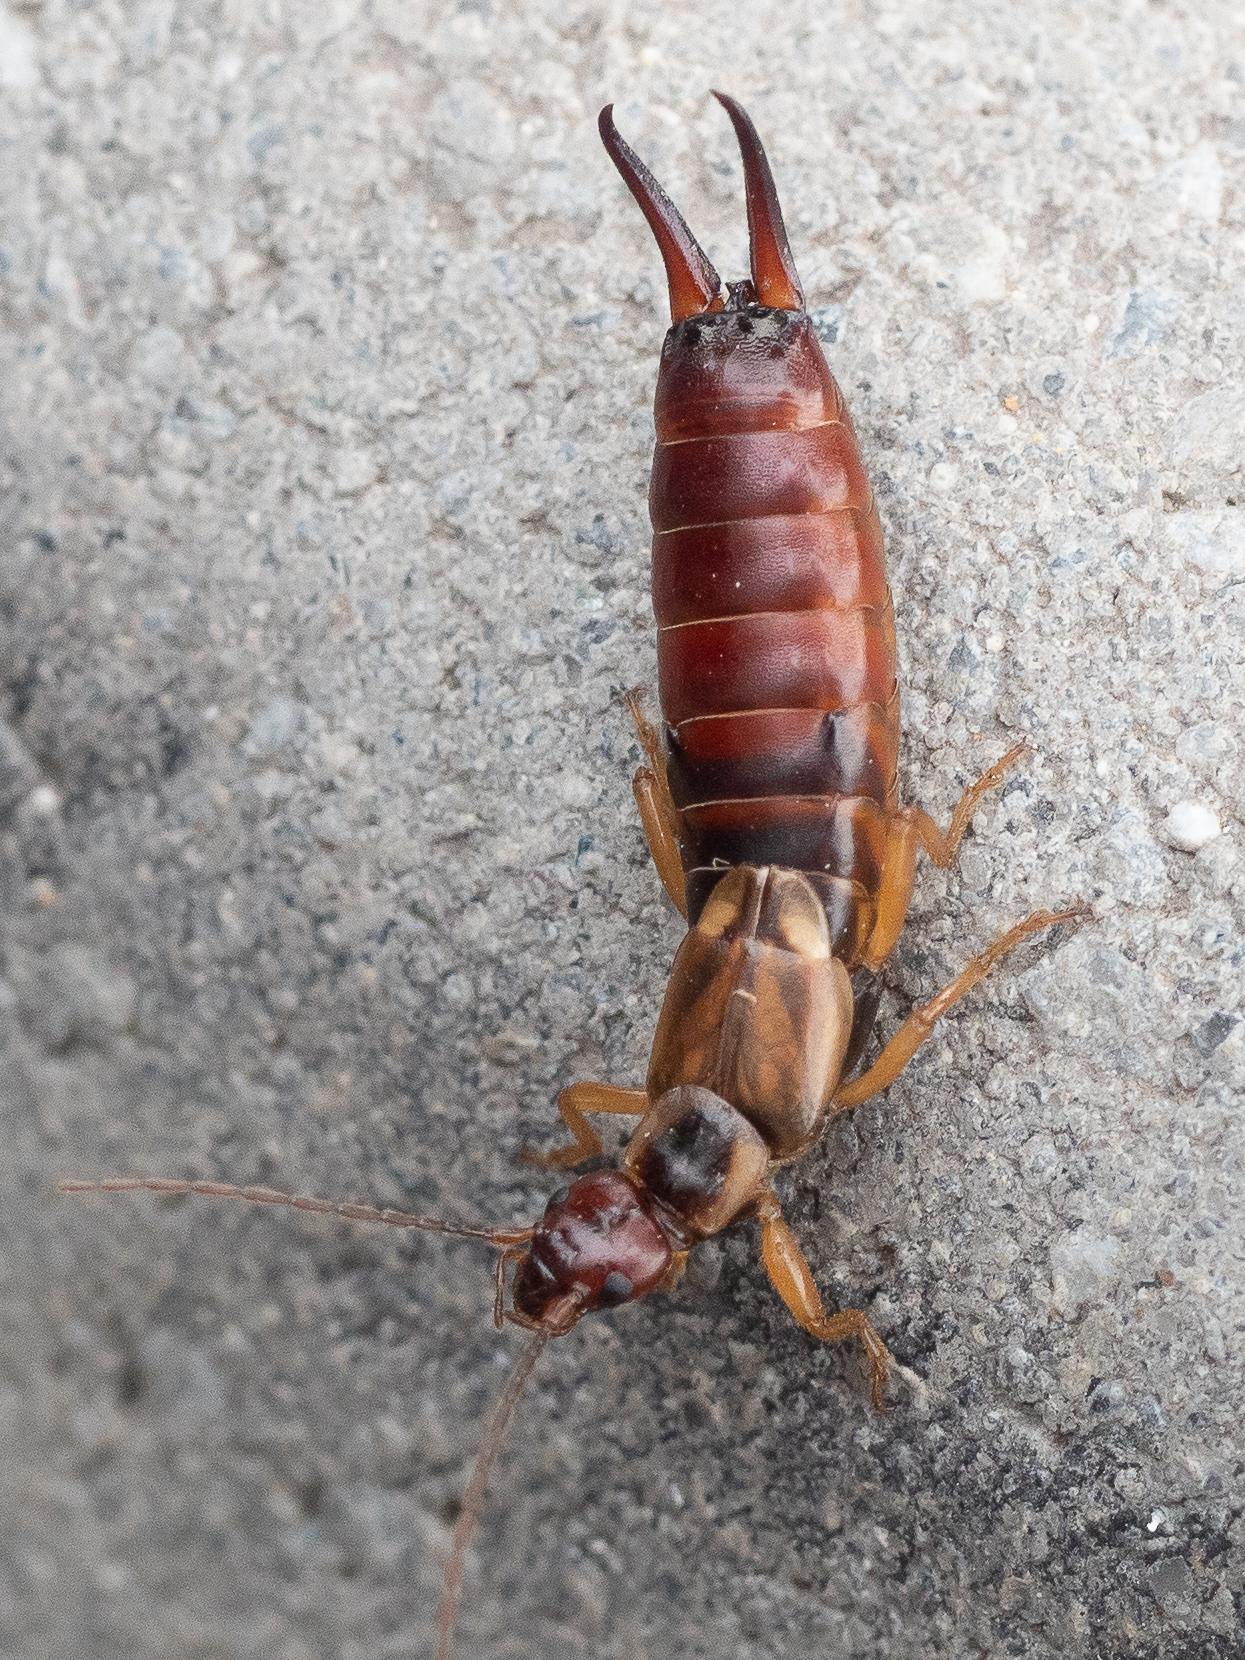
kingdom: Animalia
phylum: Arthropoda
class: Insecta
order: Dermaptera
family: Forficulidae
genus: Forficula
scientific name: Forficula
